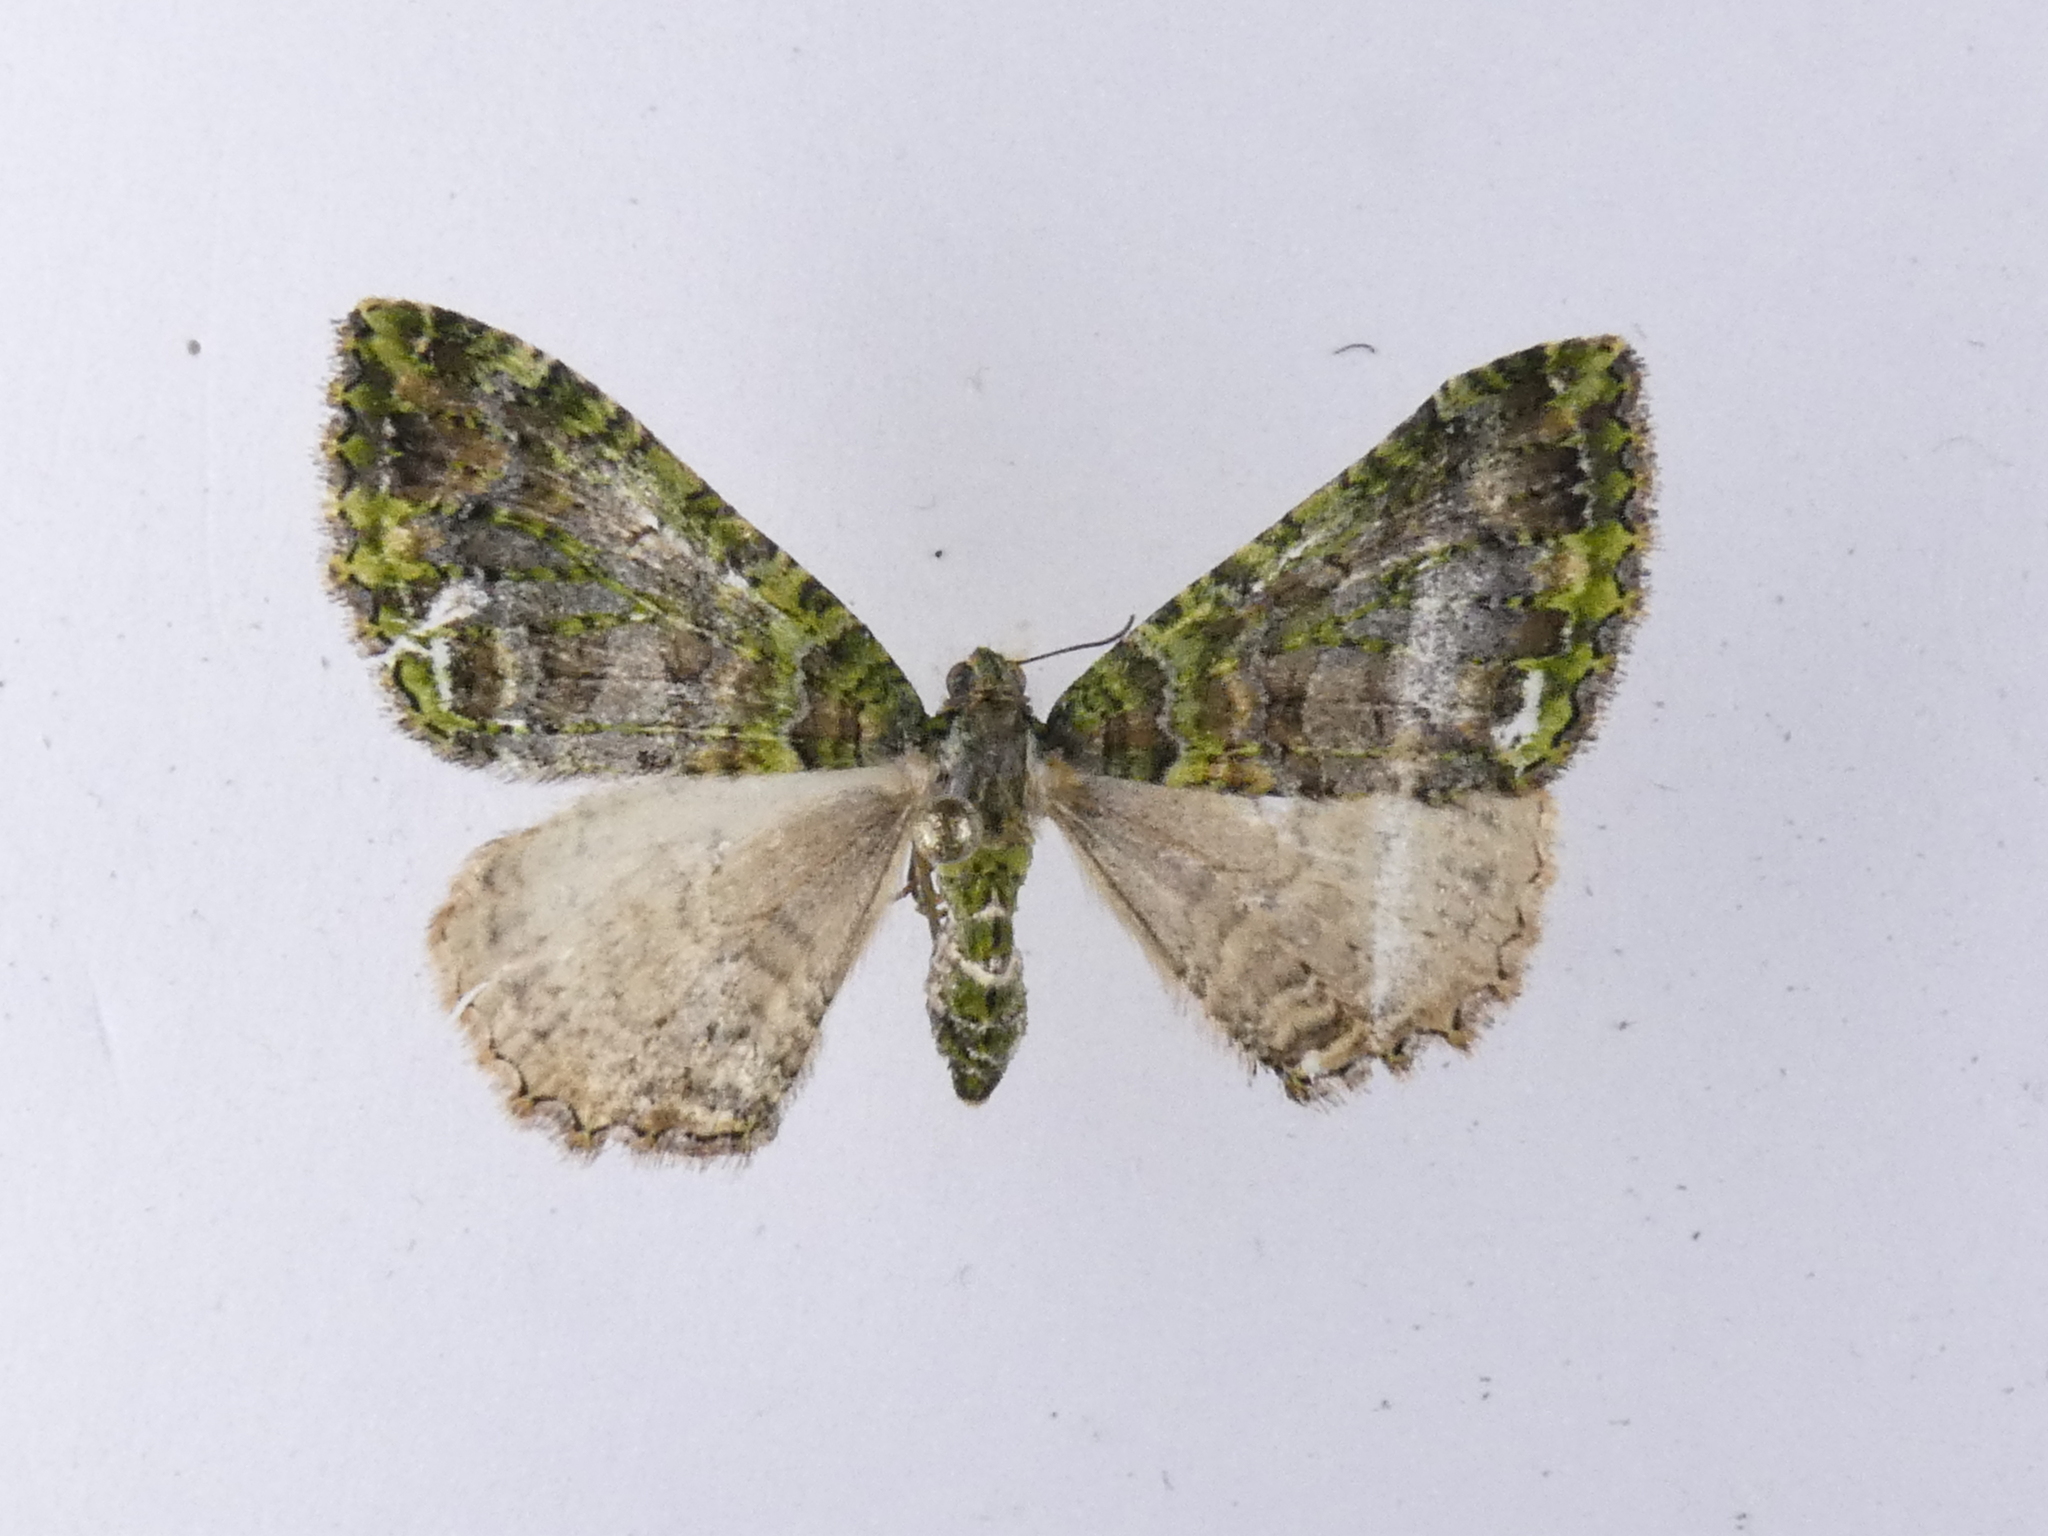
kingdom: Animalia
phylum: Arthropoda
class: Insecta
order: Lepidoptera
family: Geometridae
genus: Austrocidaria
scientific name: Austrocidaria similata
